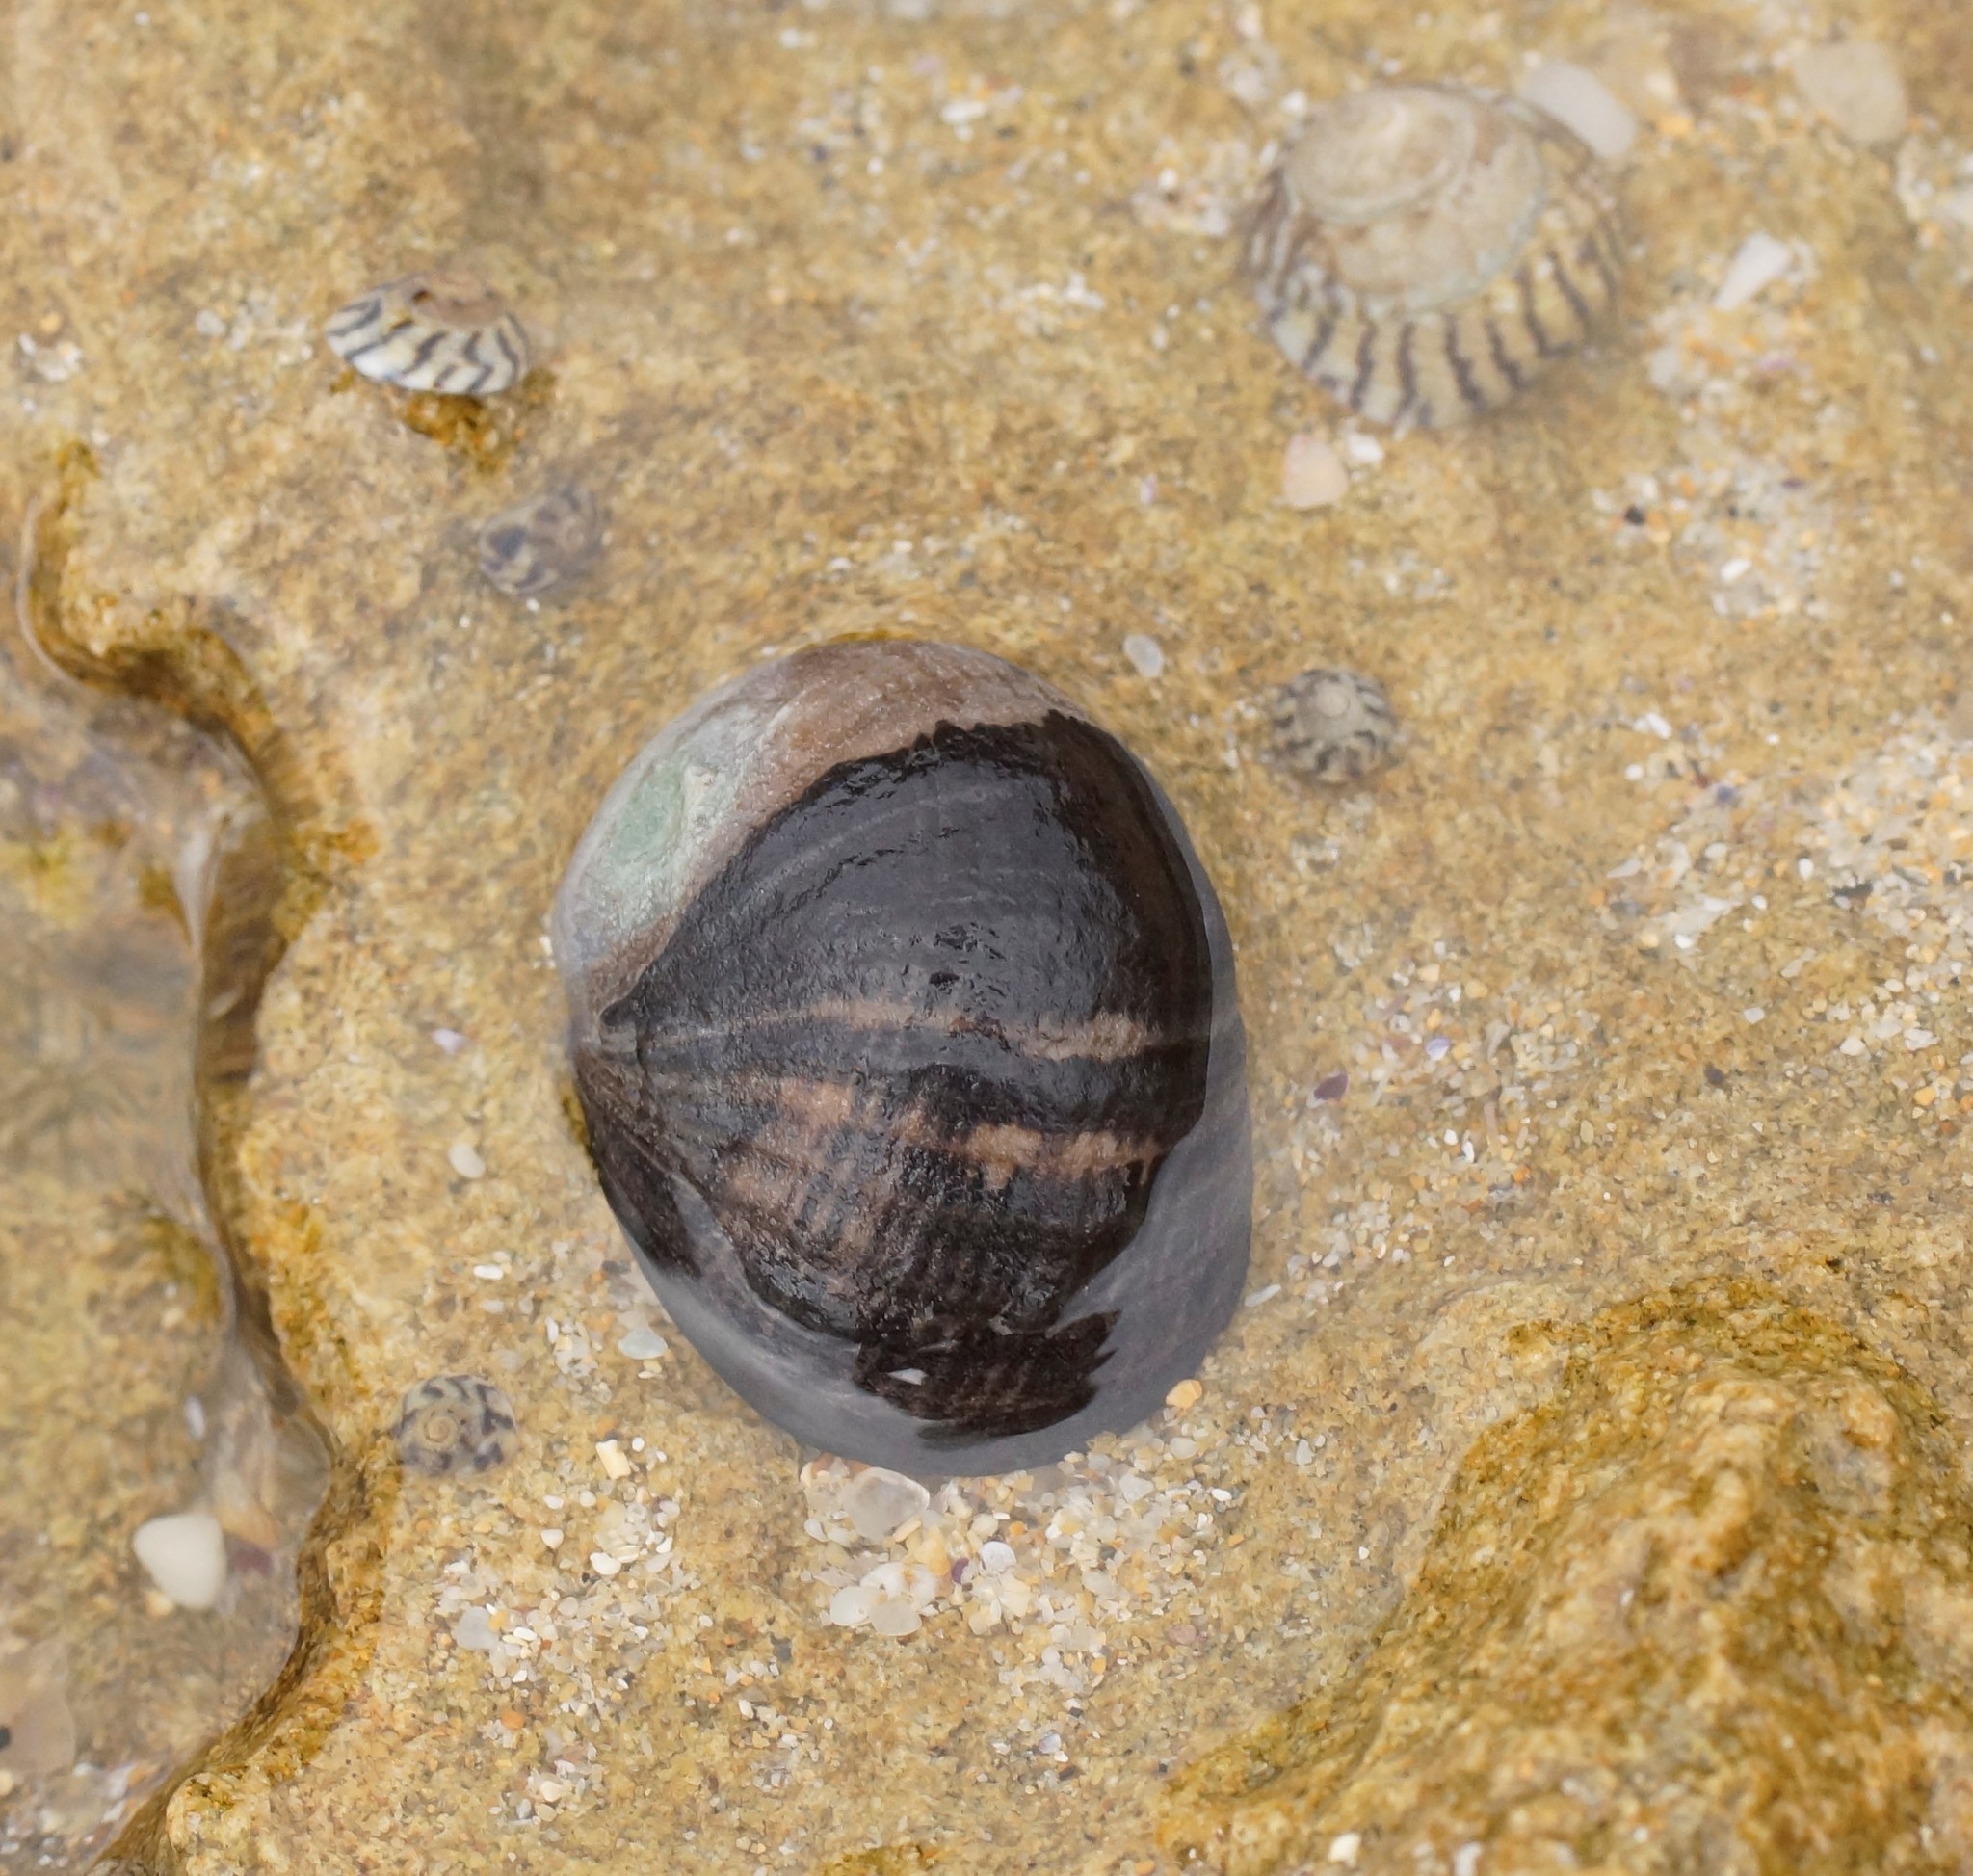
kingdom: Animalia
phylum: Mollusca
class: Gastropoda
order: Cycloneritida
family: Neritidae
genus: Nerita
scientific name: Nerita atramentosa
